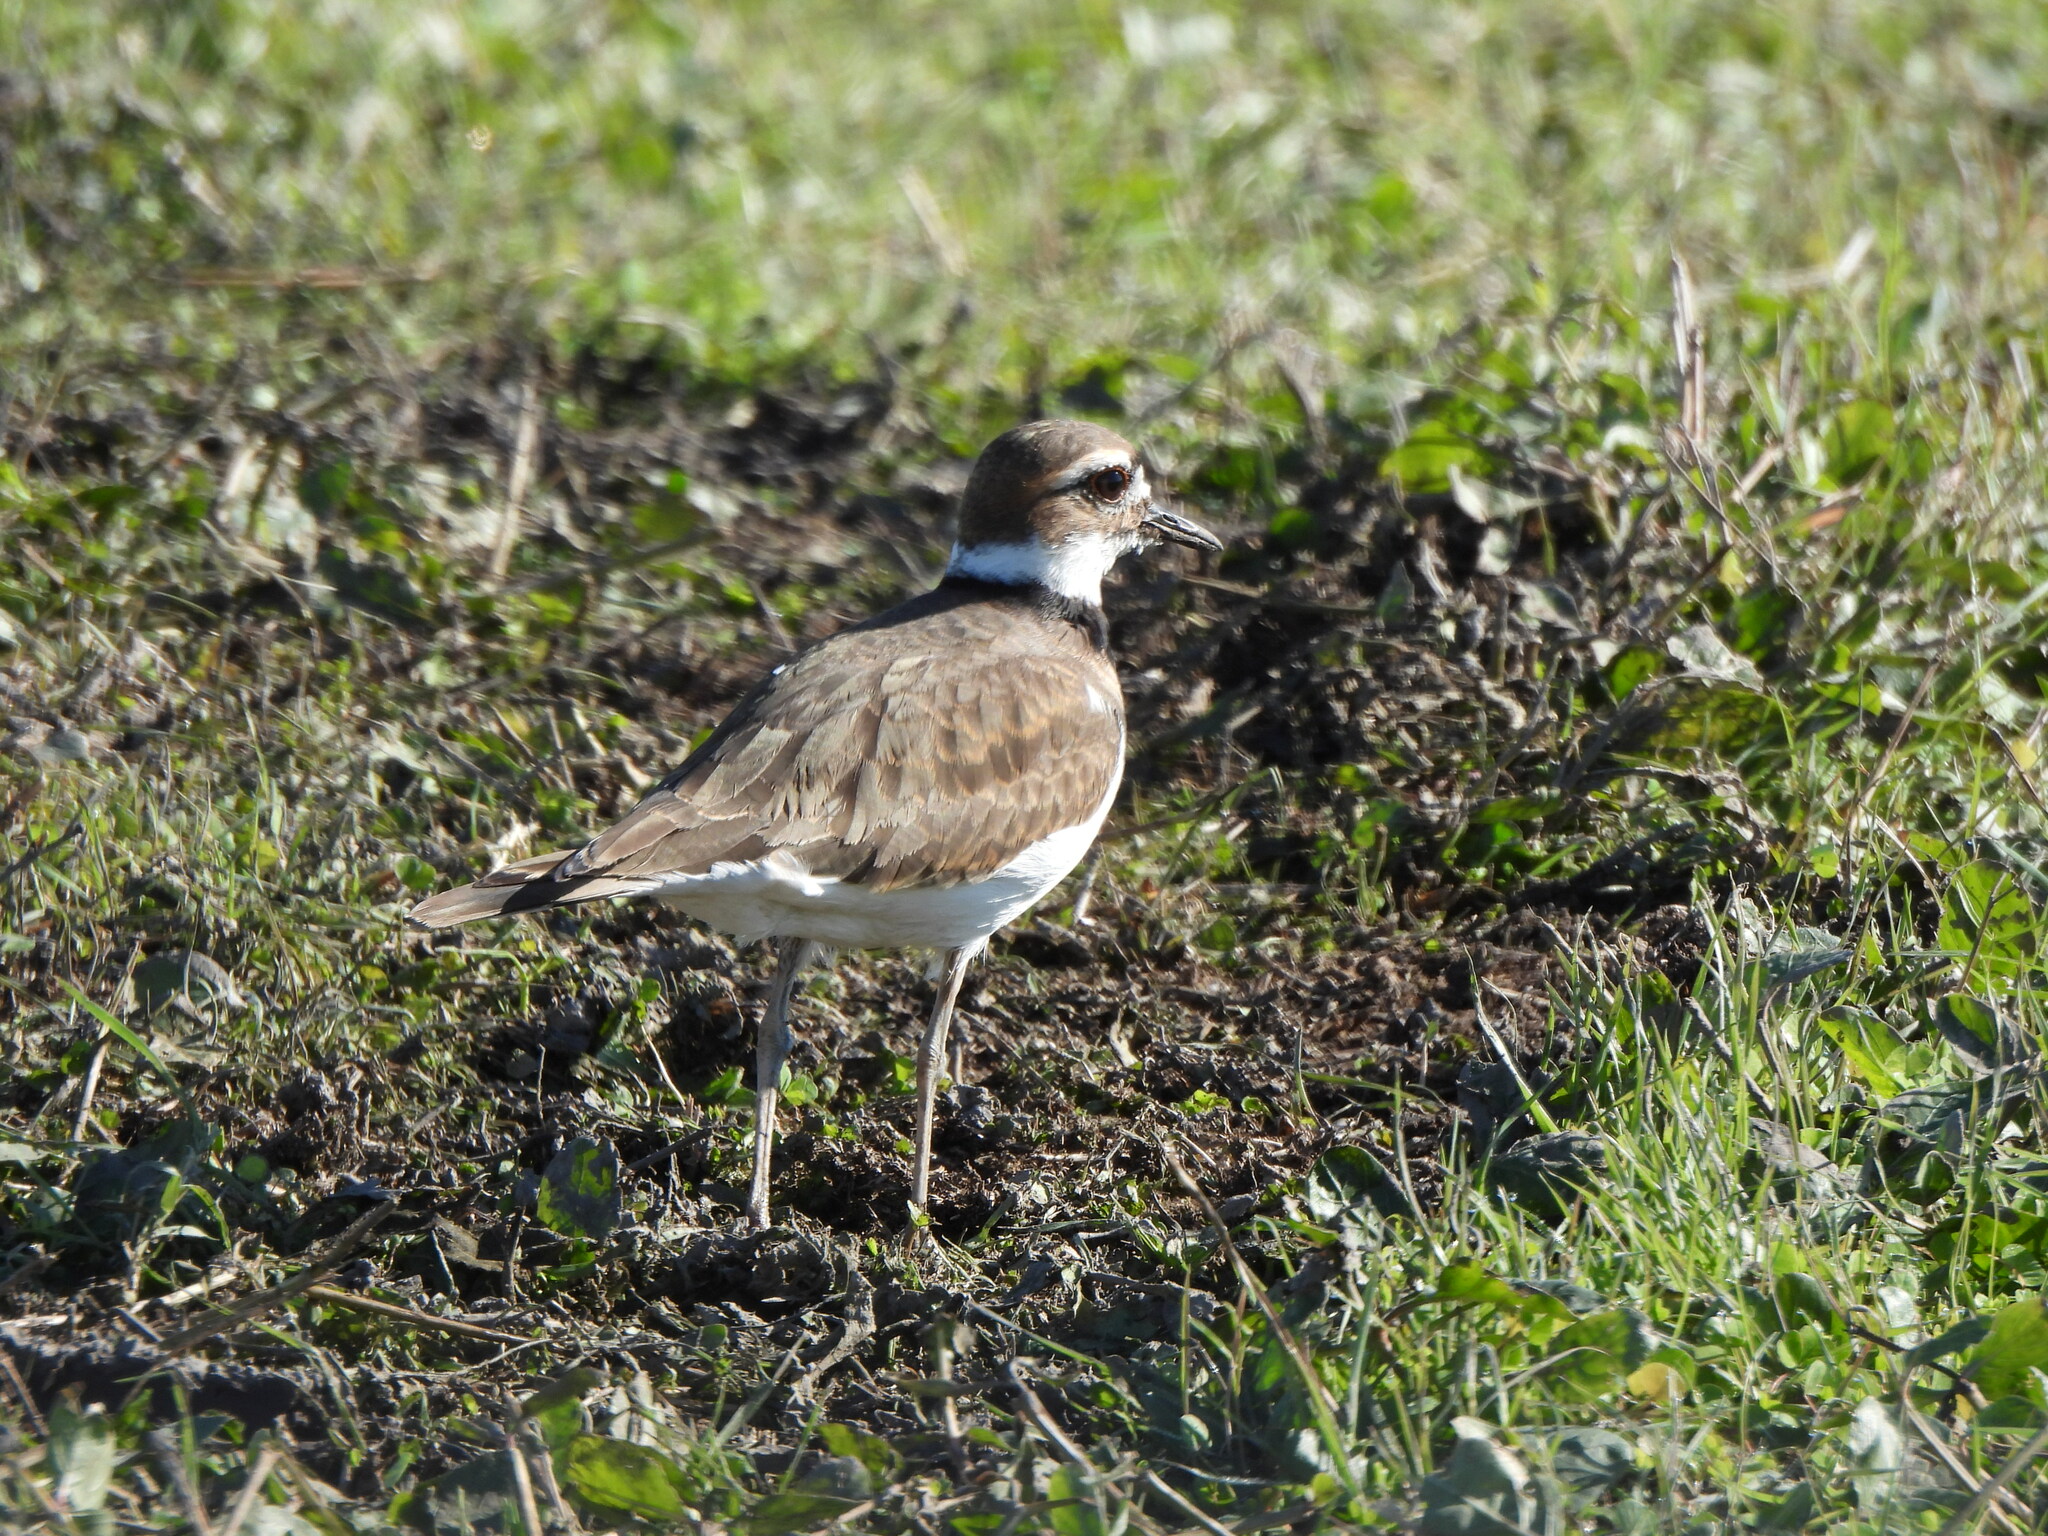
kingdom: Animalia
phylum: Chordata
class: Aves
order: Charadriiformes
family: Charadriidae
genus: Charadrius
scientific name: Charadrius vociferus
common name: Killdeer
